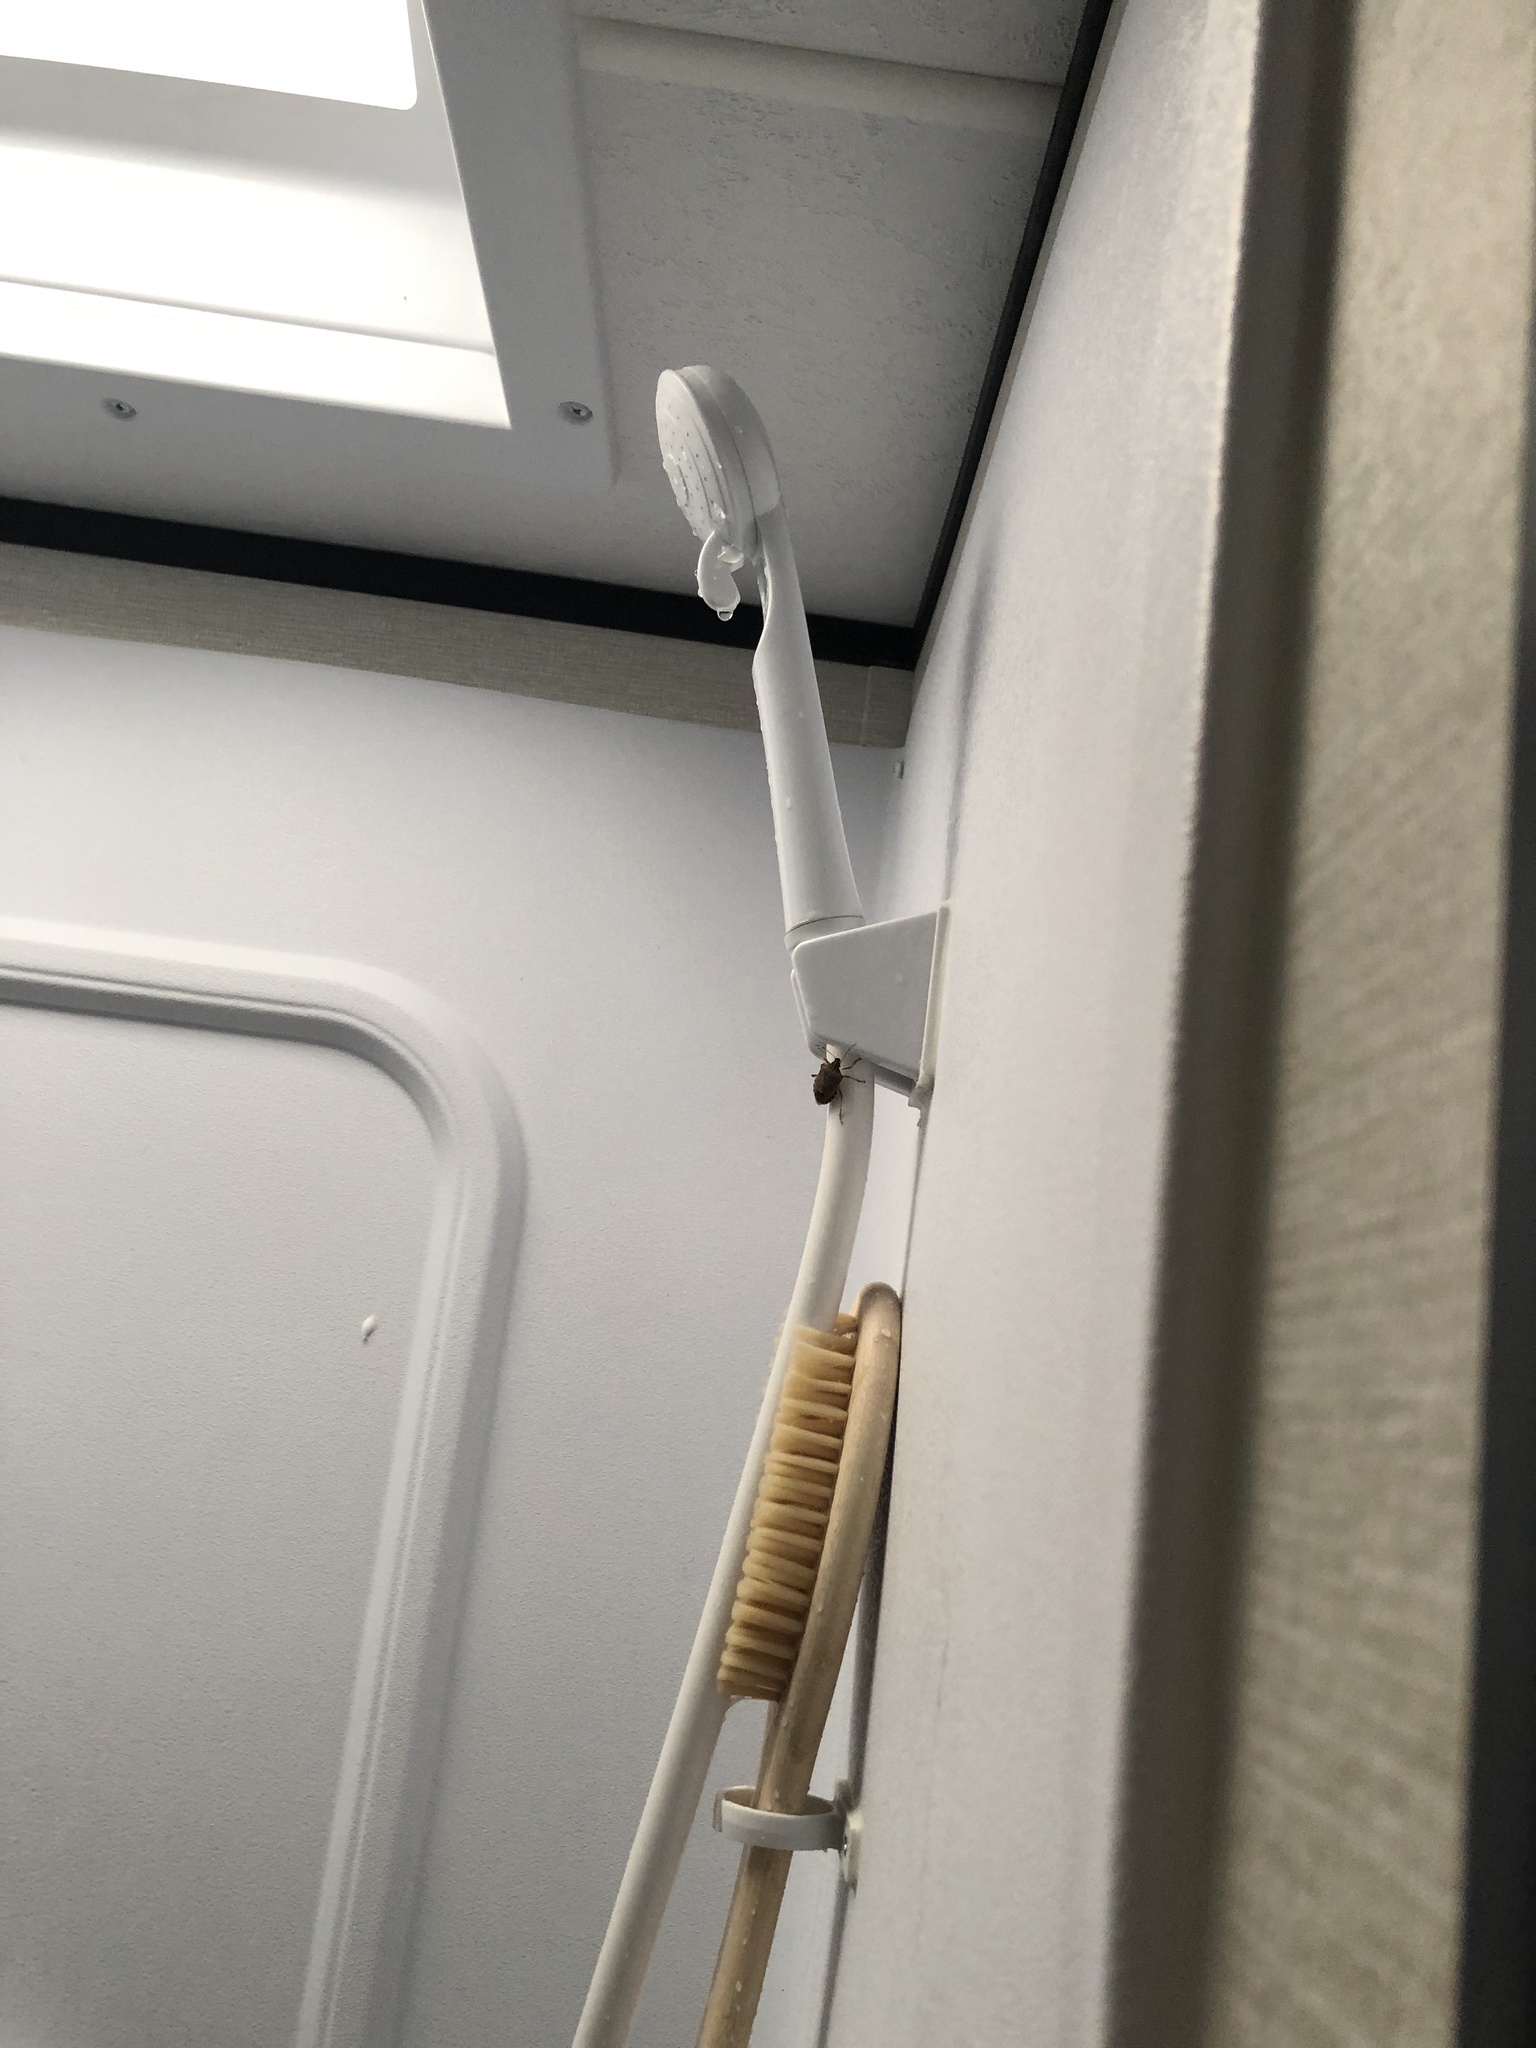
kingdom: Animalia
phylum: Arthropoda
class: Insecta
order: Hemiptera
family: Pentatomidae
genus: Halyomorpha
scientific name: Halyomorpha halys
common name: Brown marmorated stink bug
